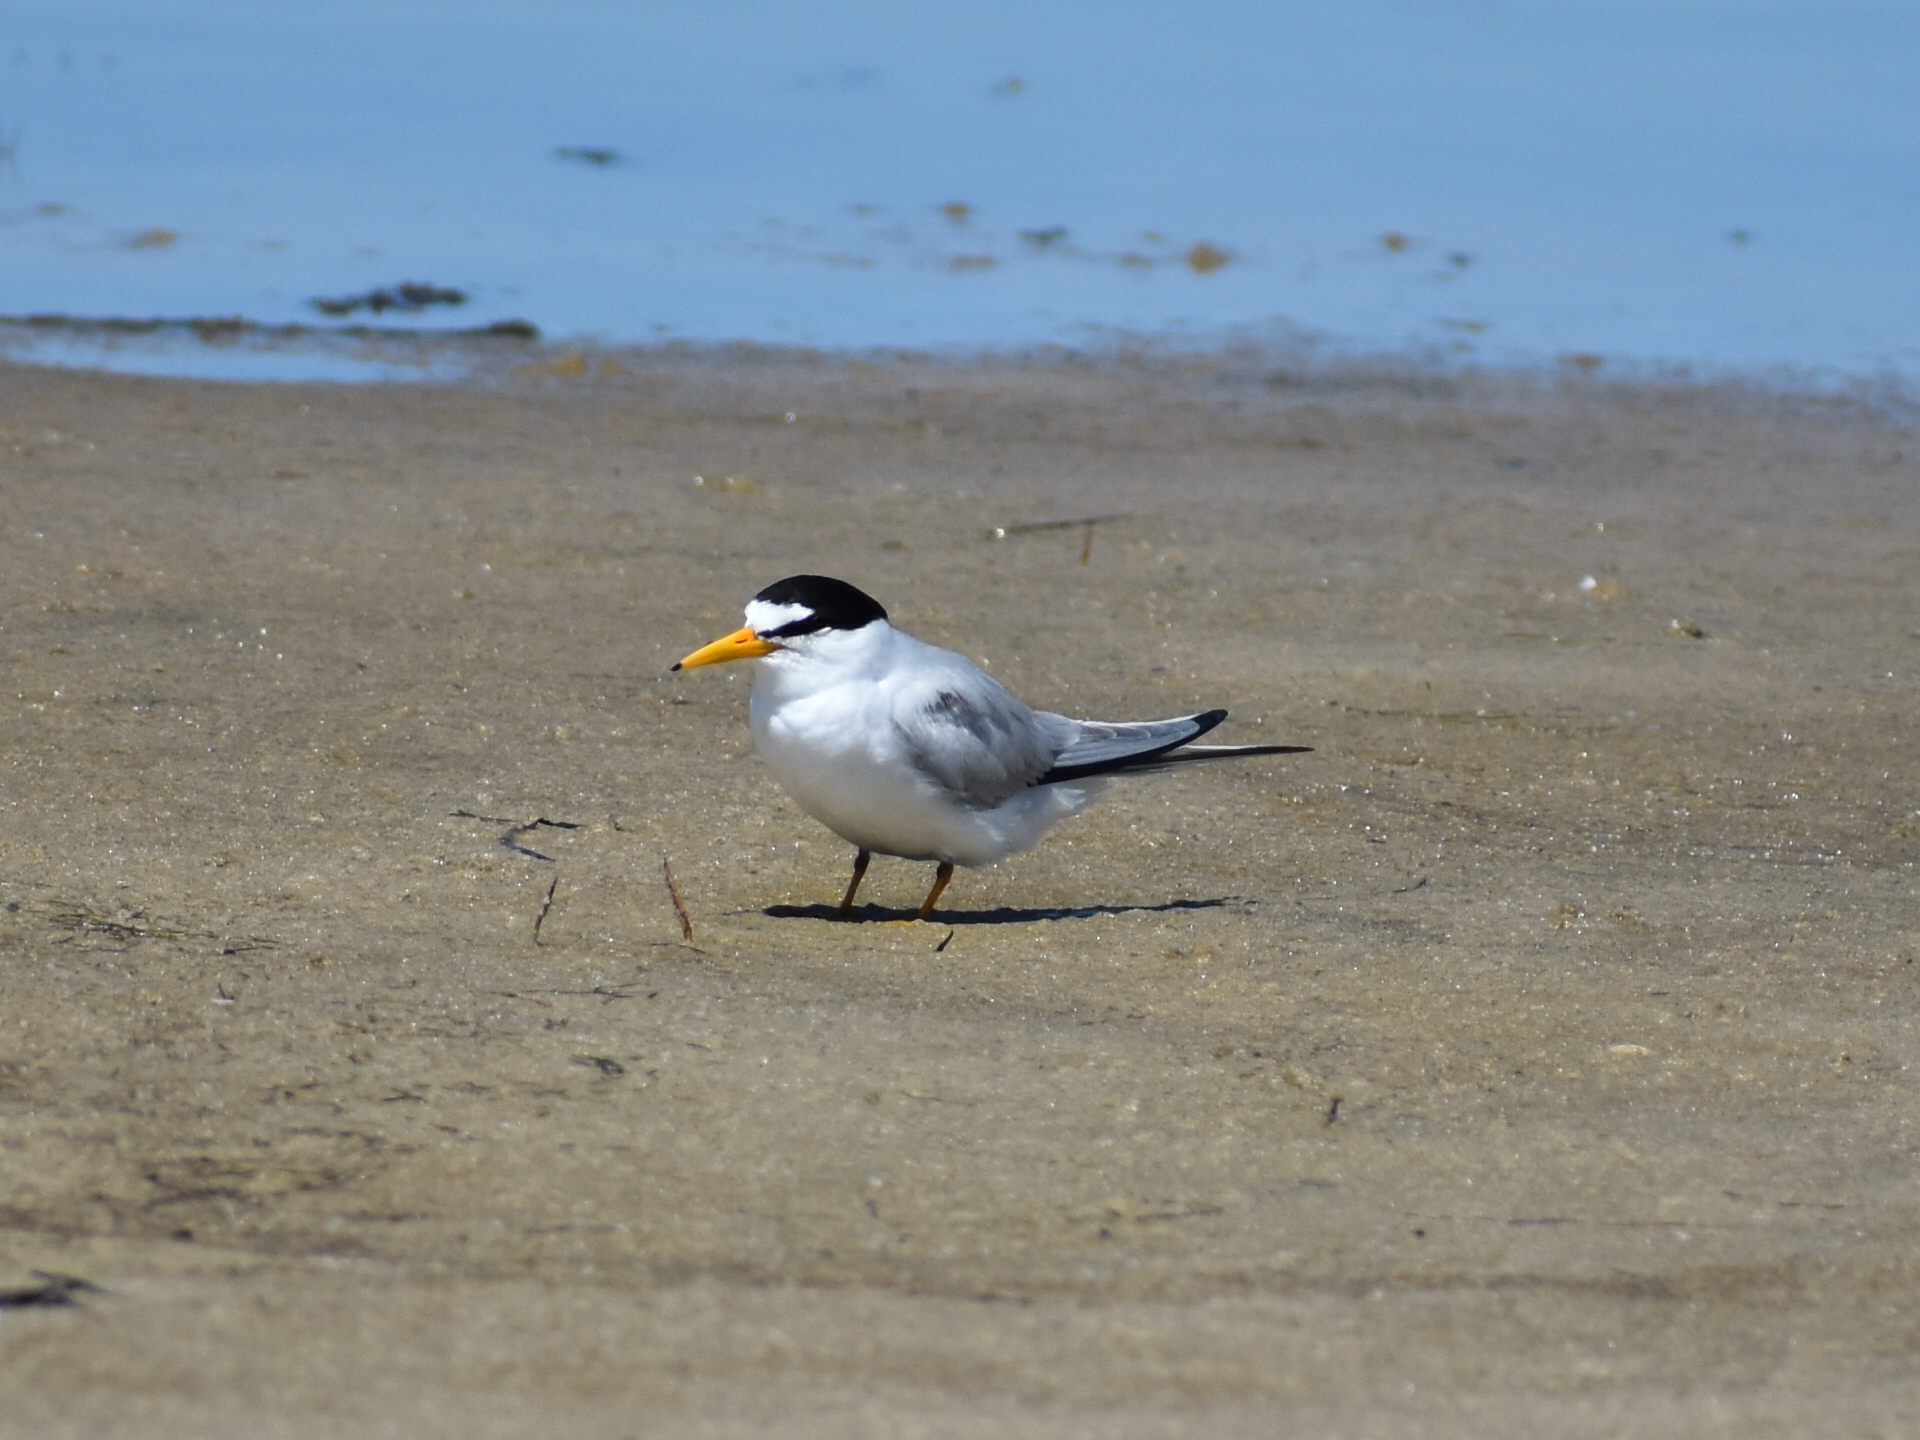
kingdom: Animalia
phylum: Chordata
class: Aves
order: Charadriiformes
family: Laridae
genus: Sternula
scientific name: Sternula antillarum
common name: Least tern
